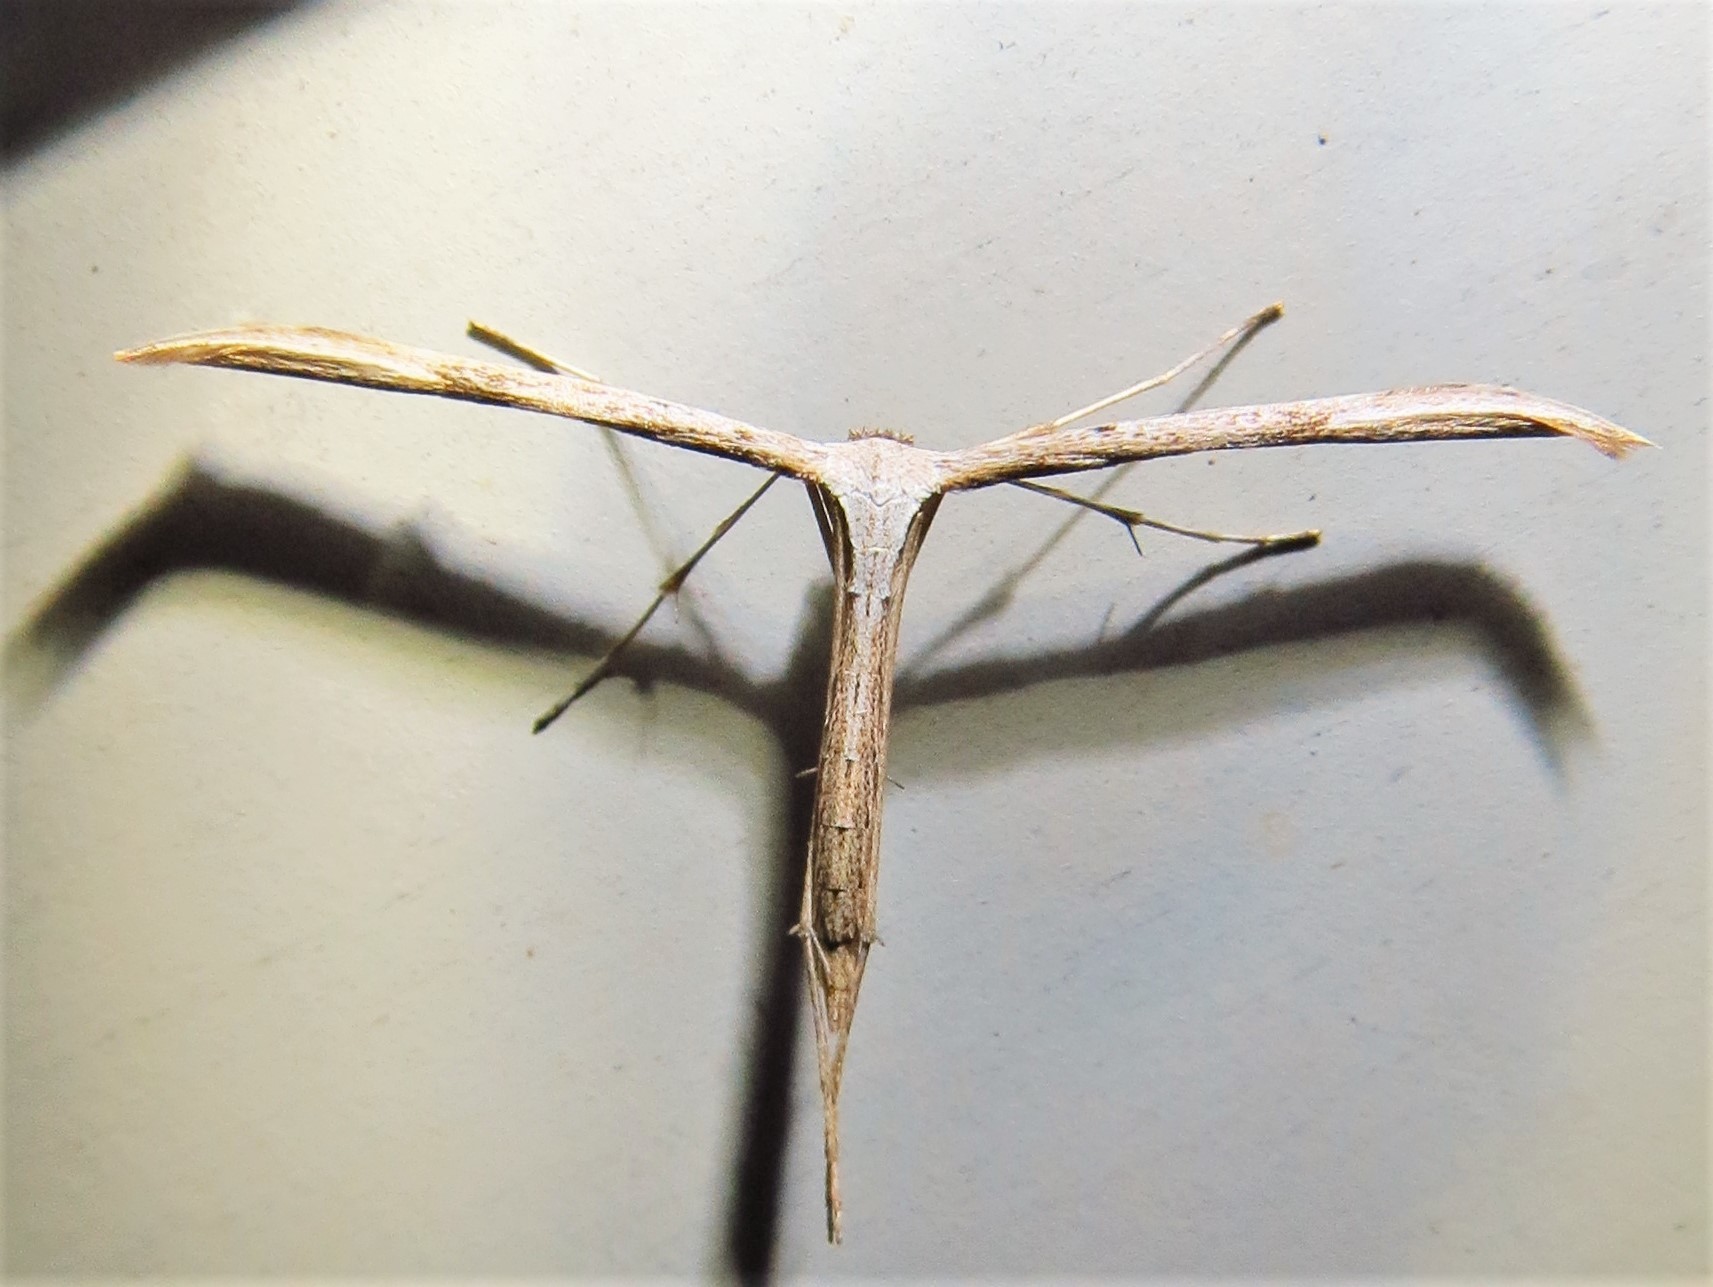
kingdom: Animalia
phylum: Arthropoda
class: Insecta
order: Lepidoptera
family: Pterophoridae
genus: Emmelina
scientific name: Emmelina monodactyla
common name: Common plume
